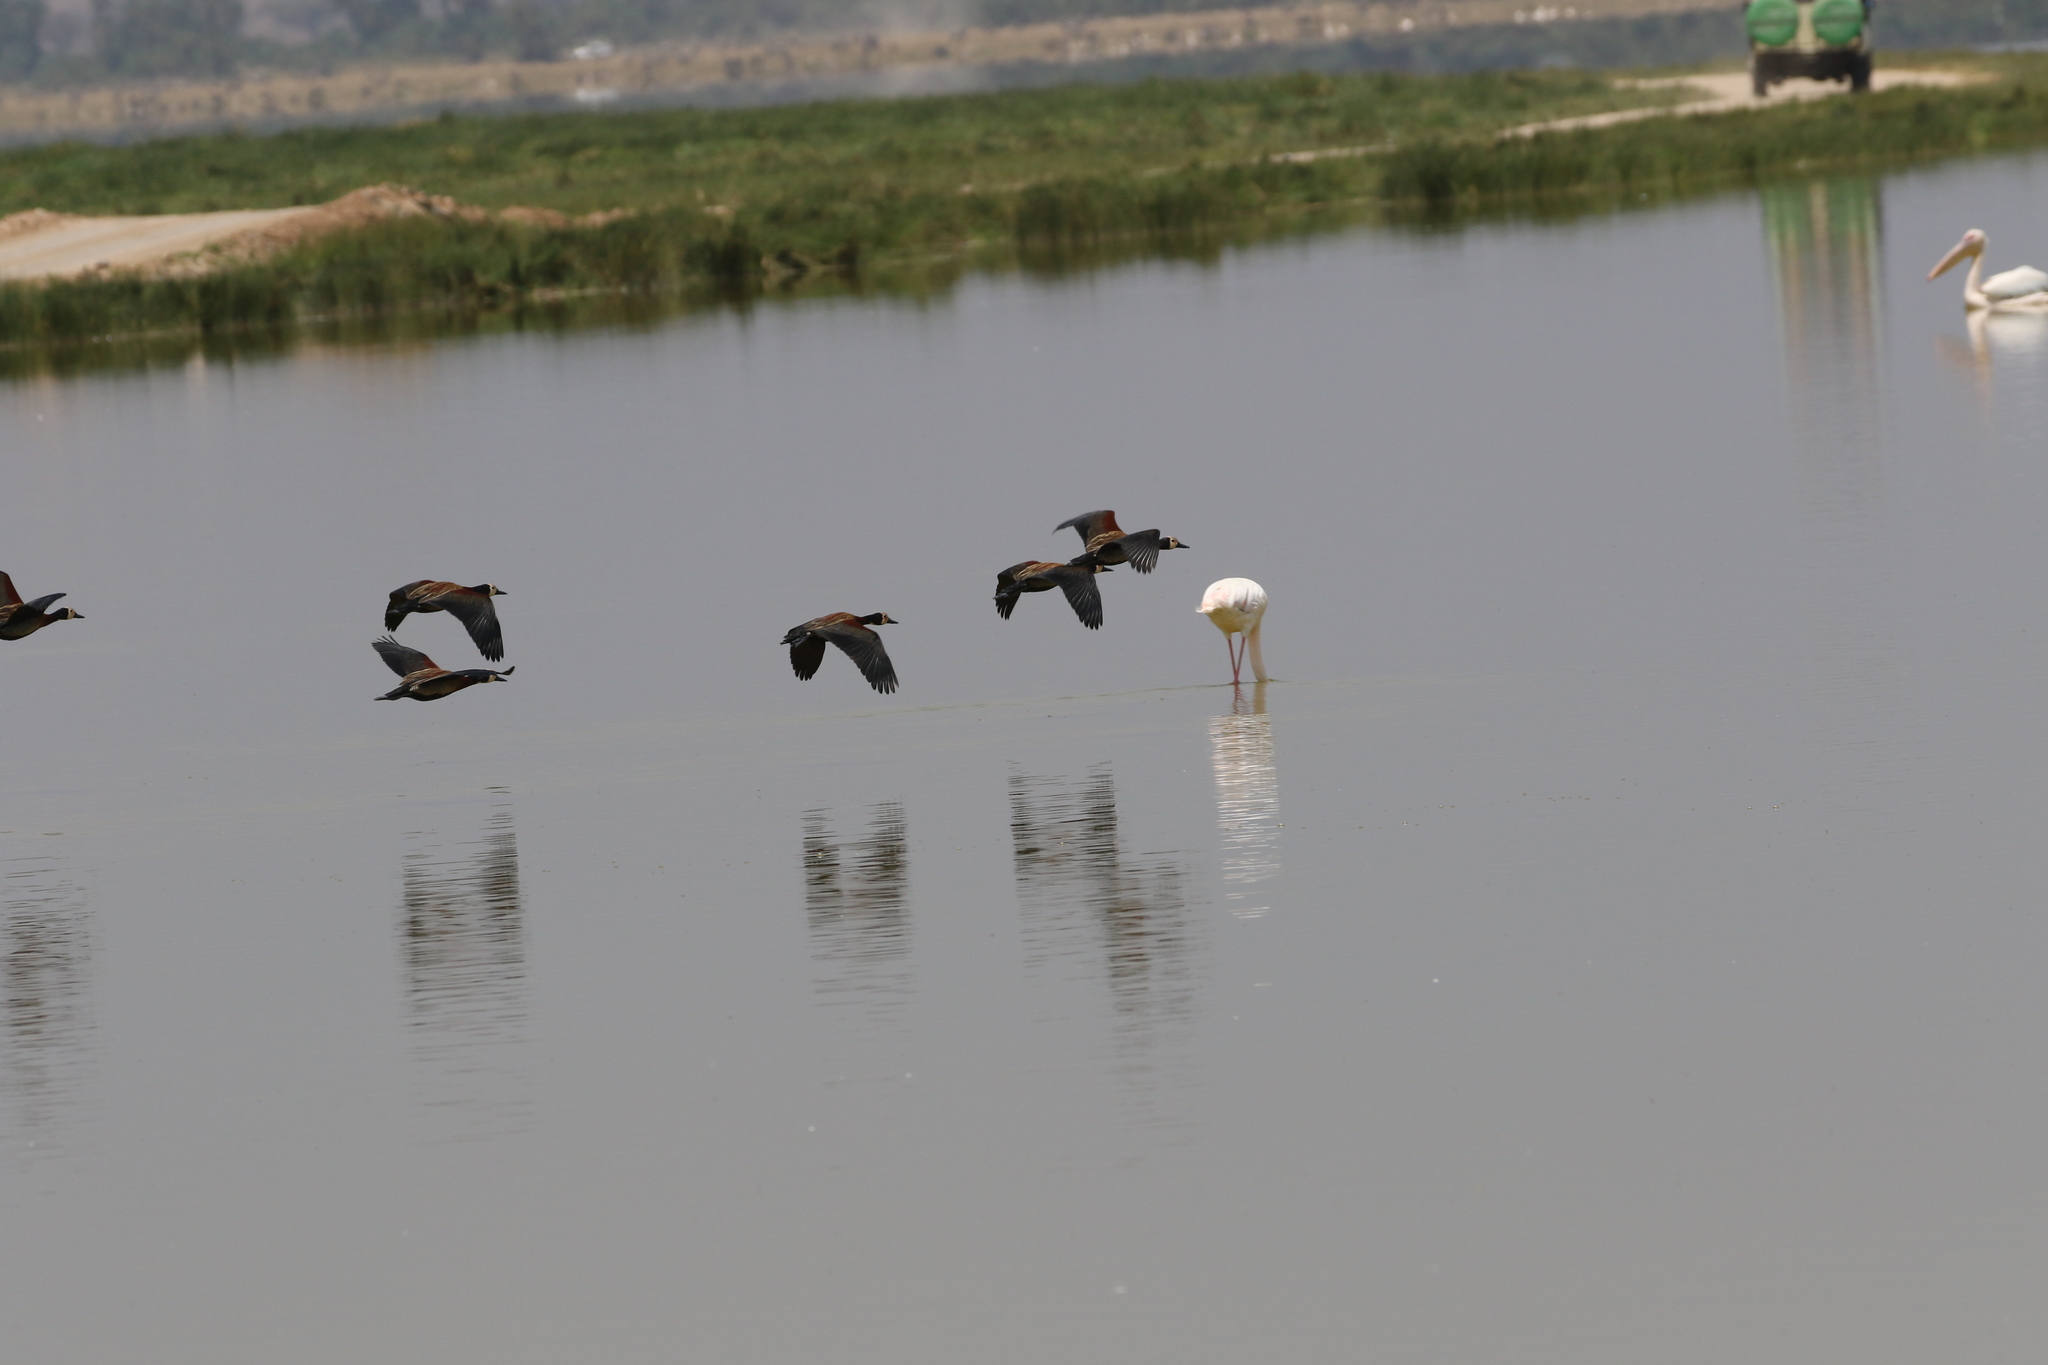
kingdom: Animalia
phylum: Chordata
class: Aves
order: Anseriformes
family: Anatidae
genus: Dendrocygna
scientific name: Dendrocygna viduata
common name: White-faced whistling duck
